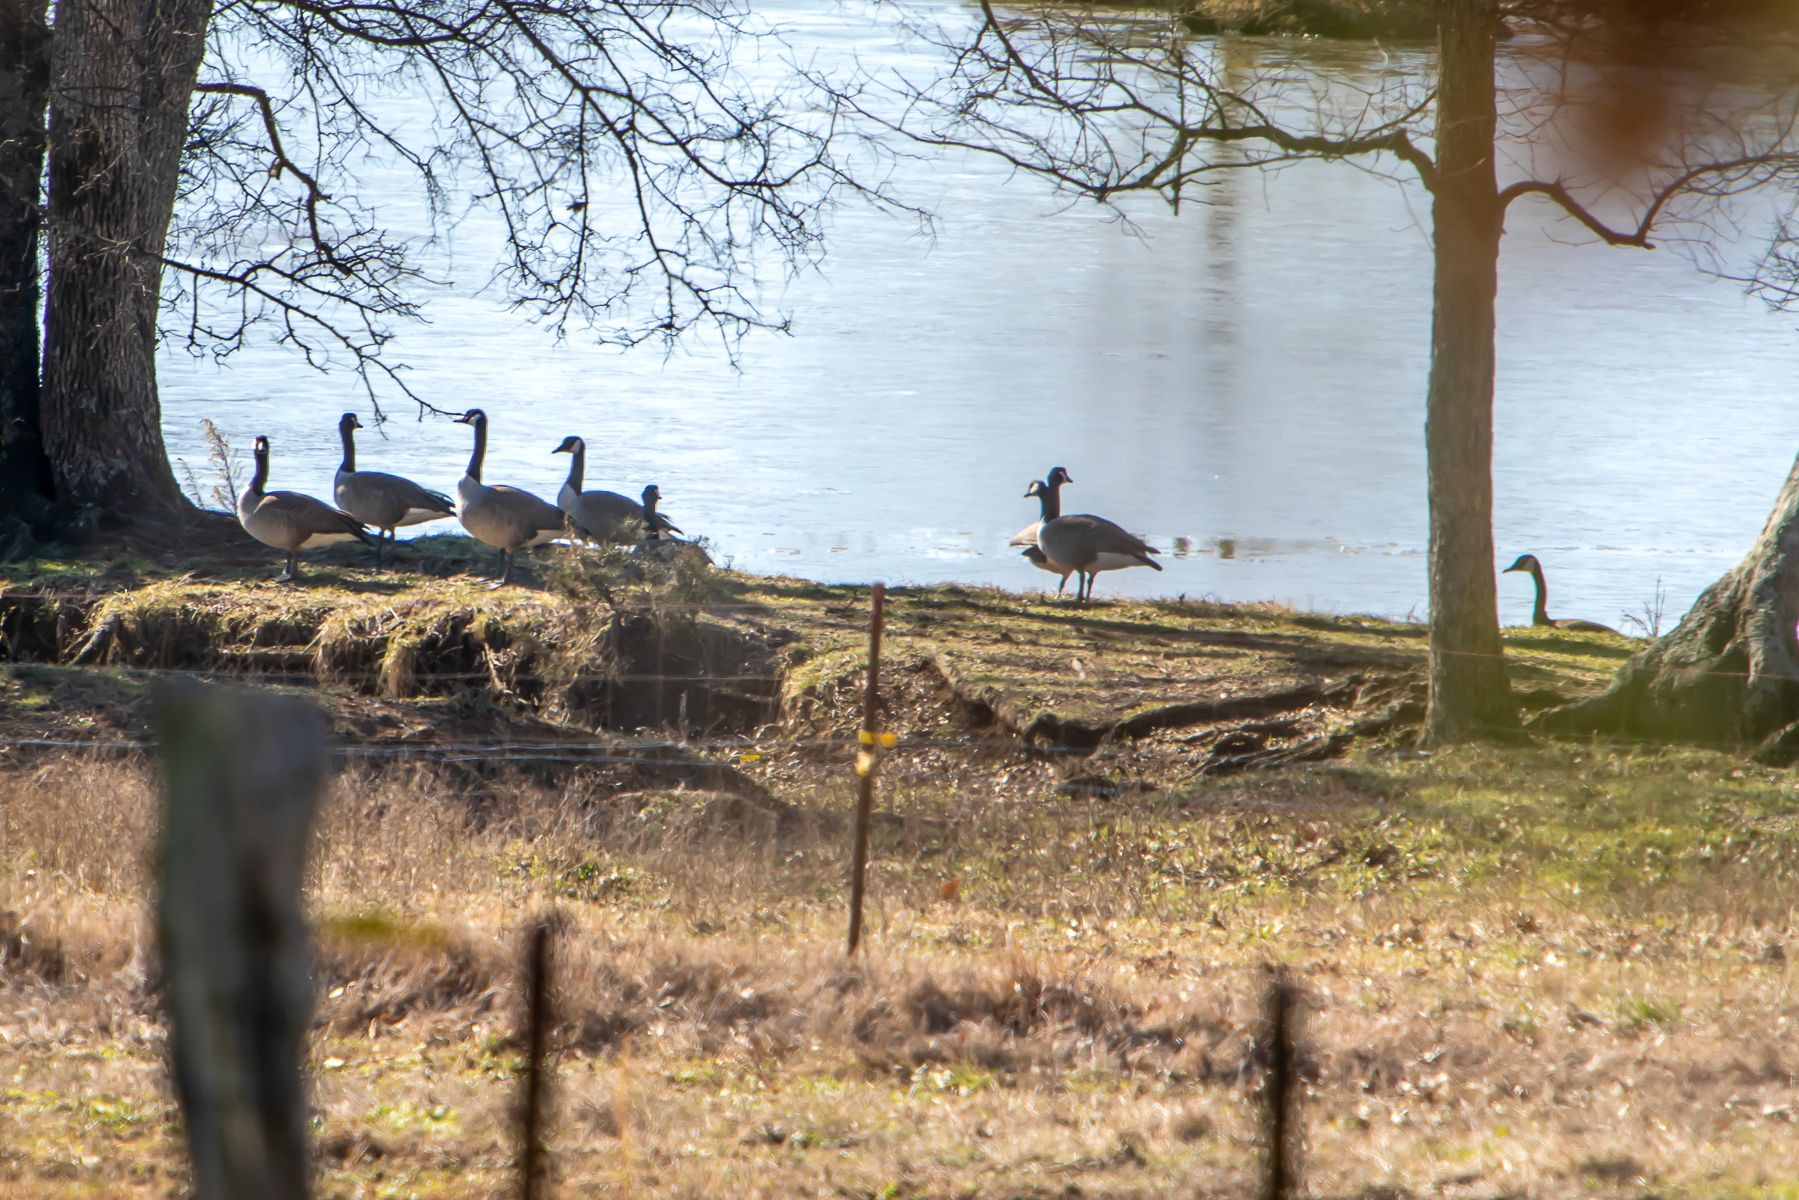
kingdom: Animalia
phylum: Chordata
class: Aves
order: Anseriformes
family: Anatidae
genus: Branta
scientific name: Branta canadensis
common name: Canada goose
